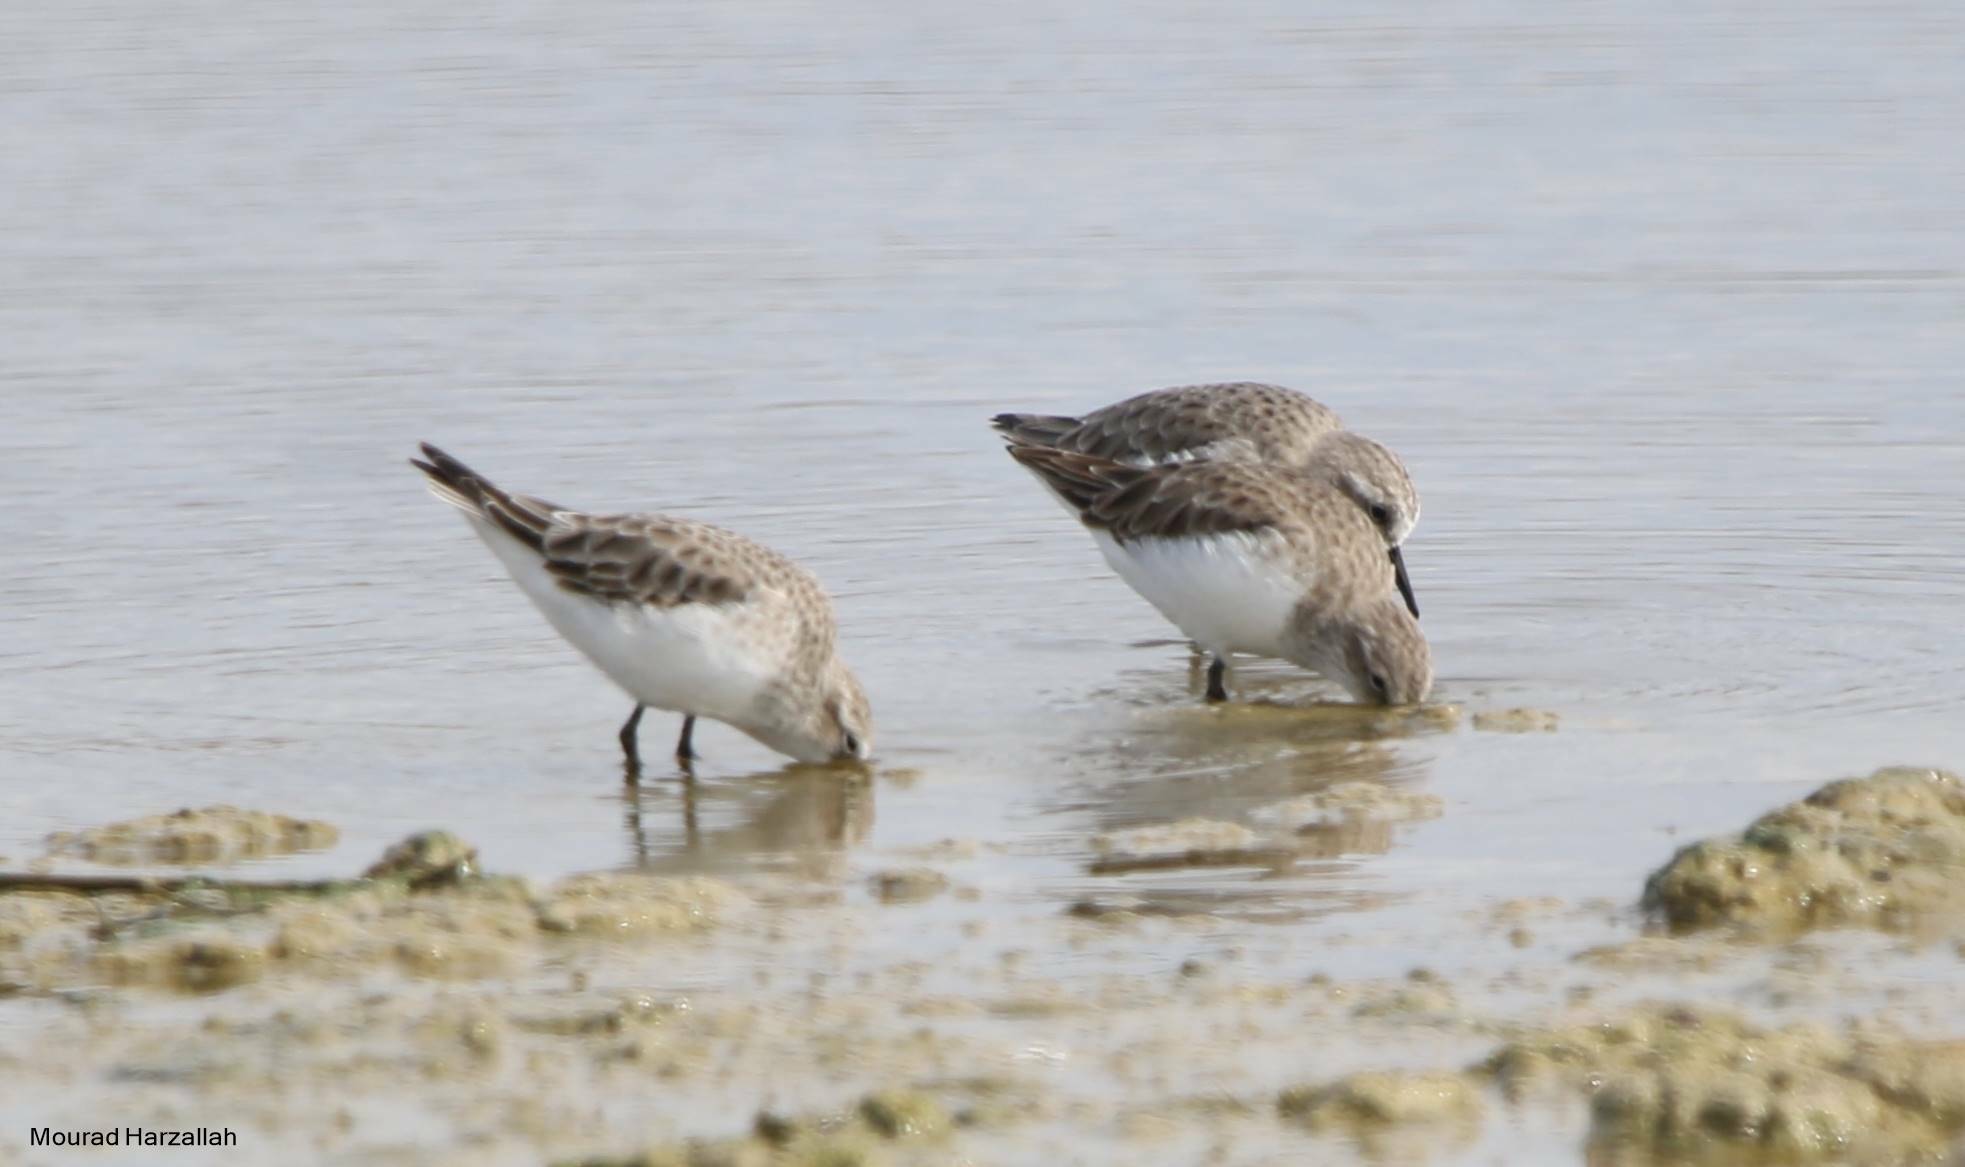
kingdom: Animalia
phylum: Chordata
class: Aves
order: Charadriiformes
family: Scolopacidae
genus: Calidris
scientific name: Calidris minuta
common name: Little stint
